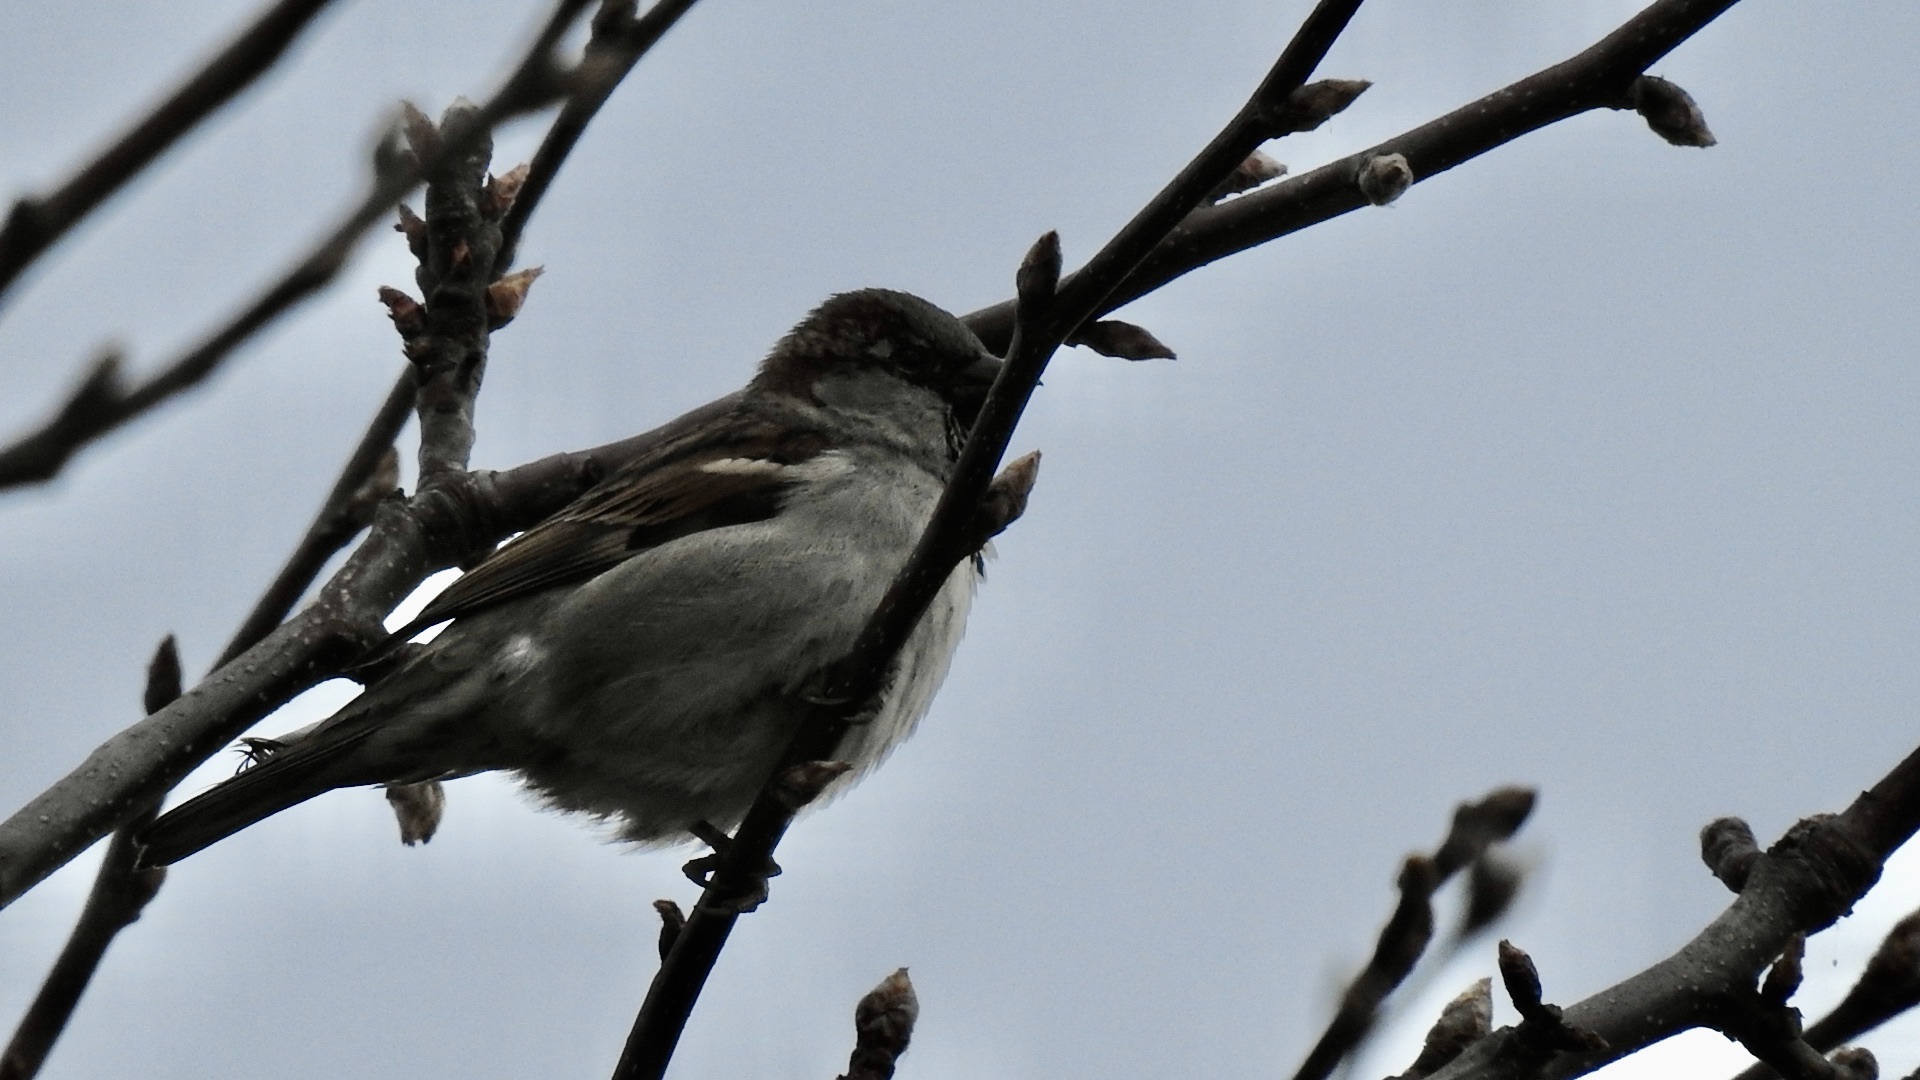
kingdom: Animalia
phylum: Chordata
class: Aves
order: Passeriformes
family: Passeridae
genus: Passer
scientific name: Passer domesticus
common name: House sparrow
